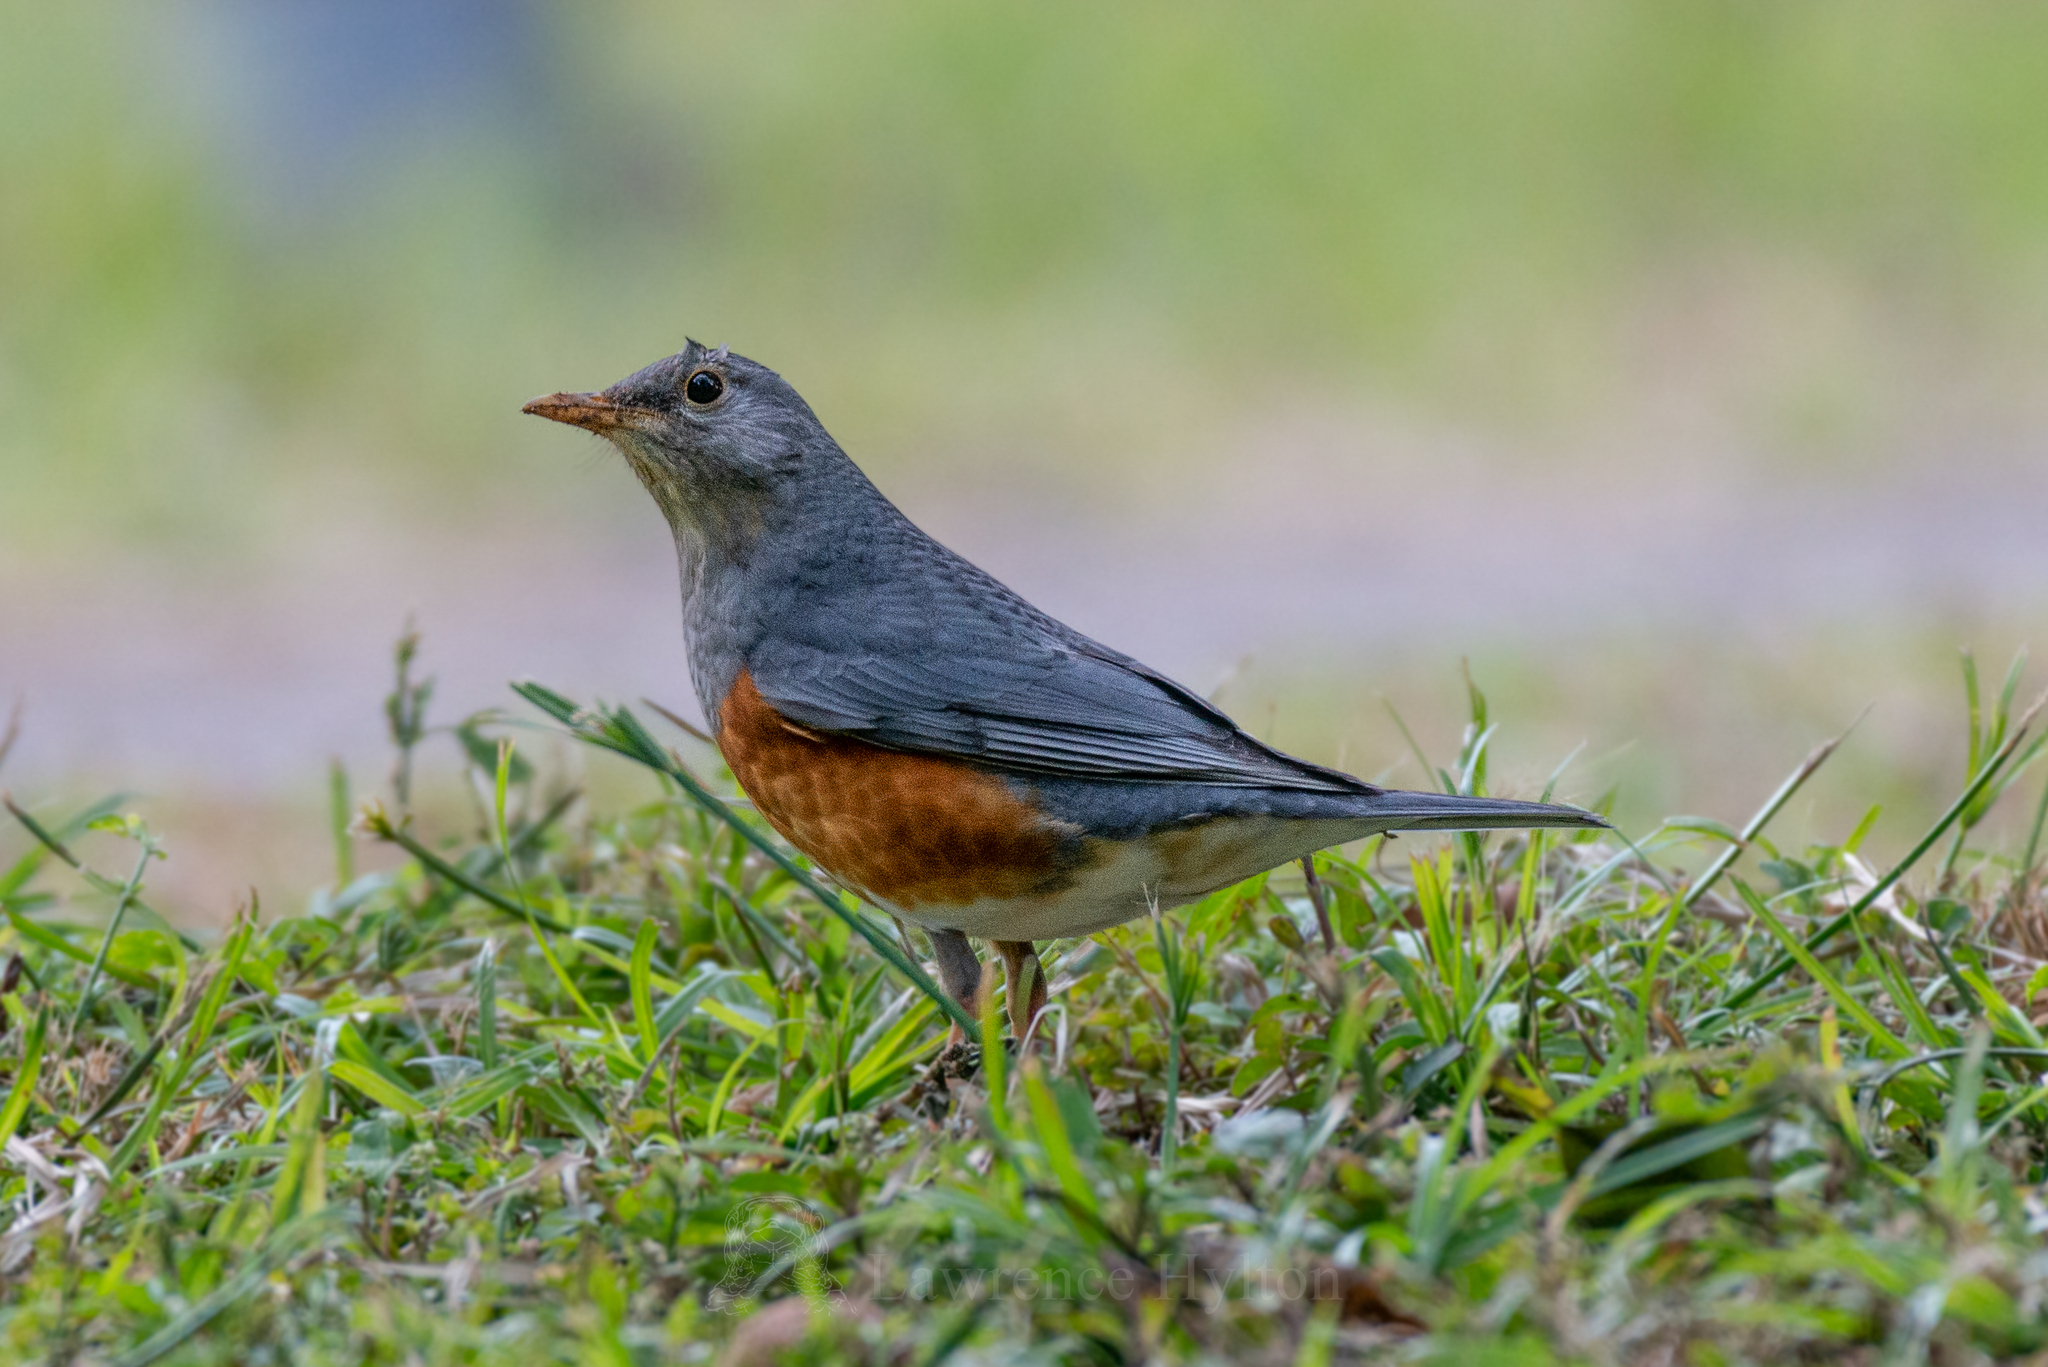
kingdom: Animalia
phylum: Chordata
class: Aves
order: Passeriformes
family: Turdidae
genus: Turdus
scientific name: Turdus hortulorum
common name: Grey-backed thrush
